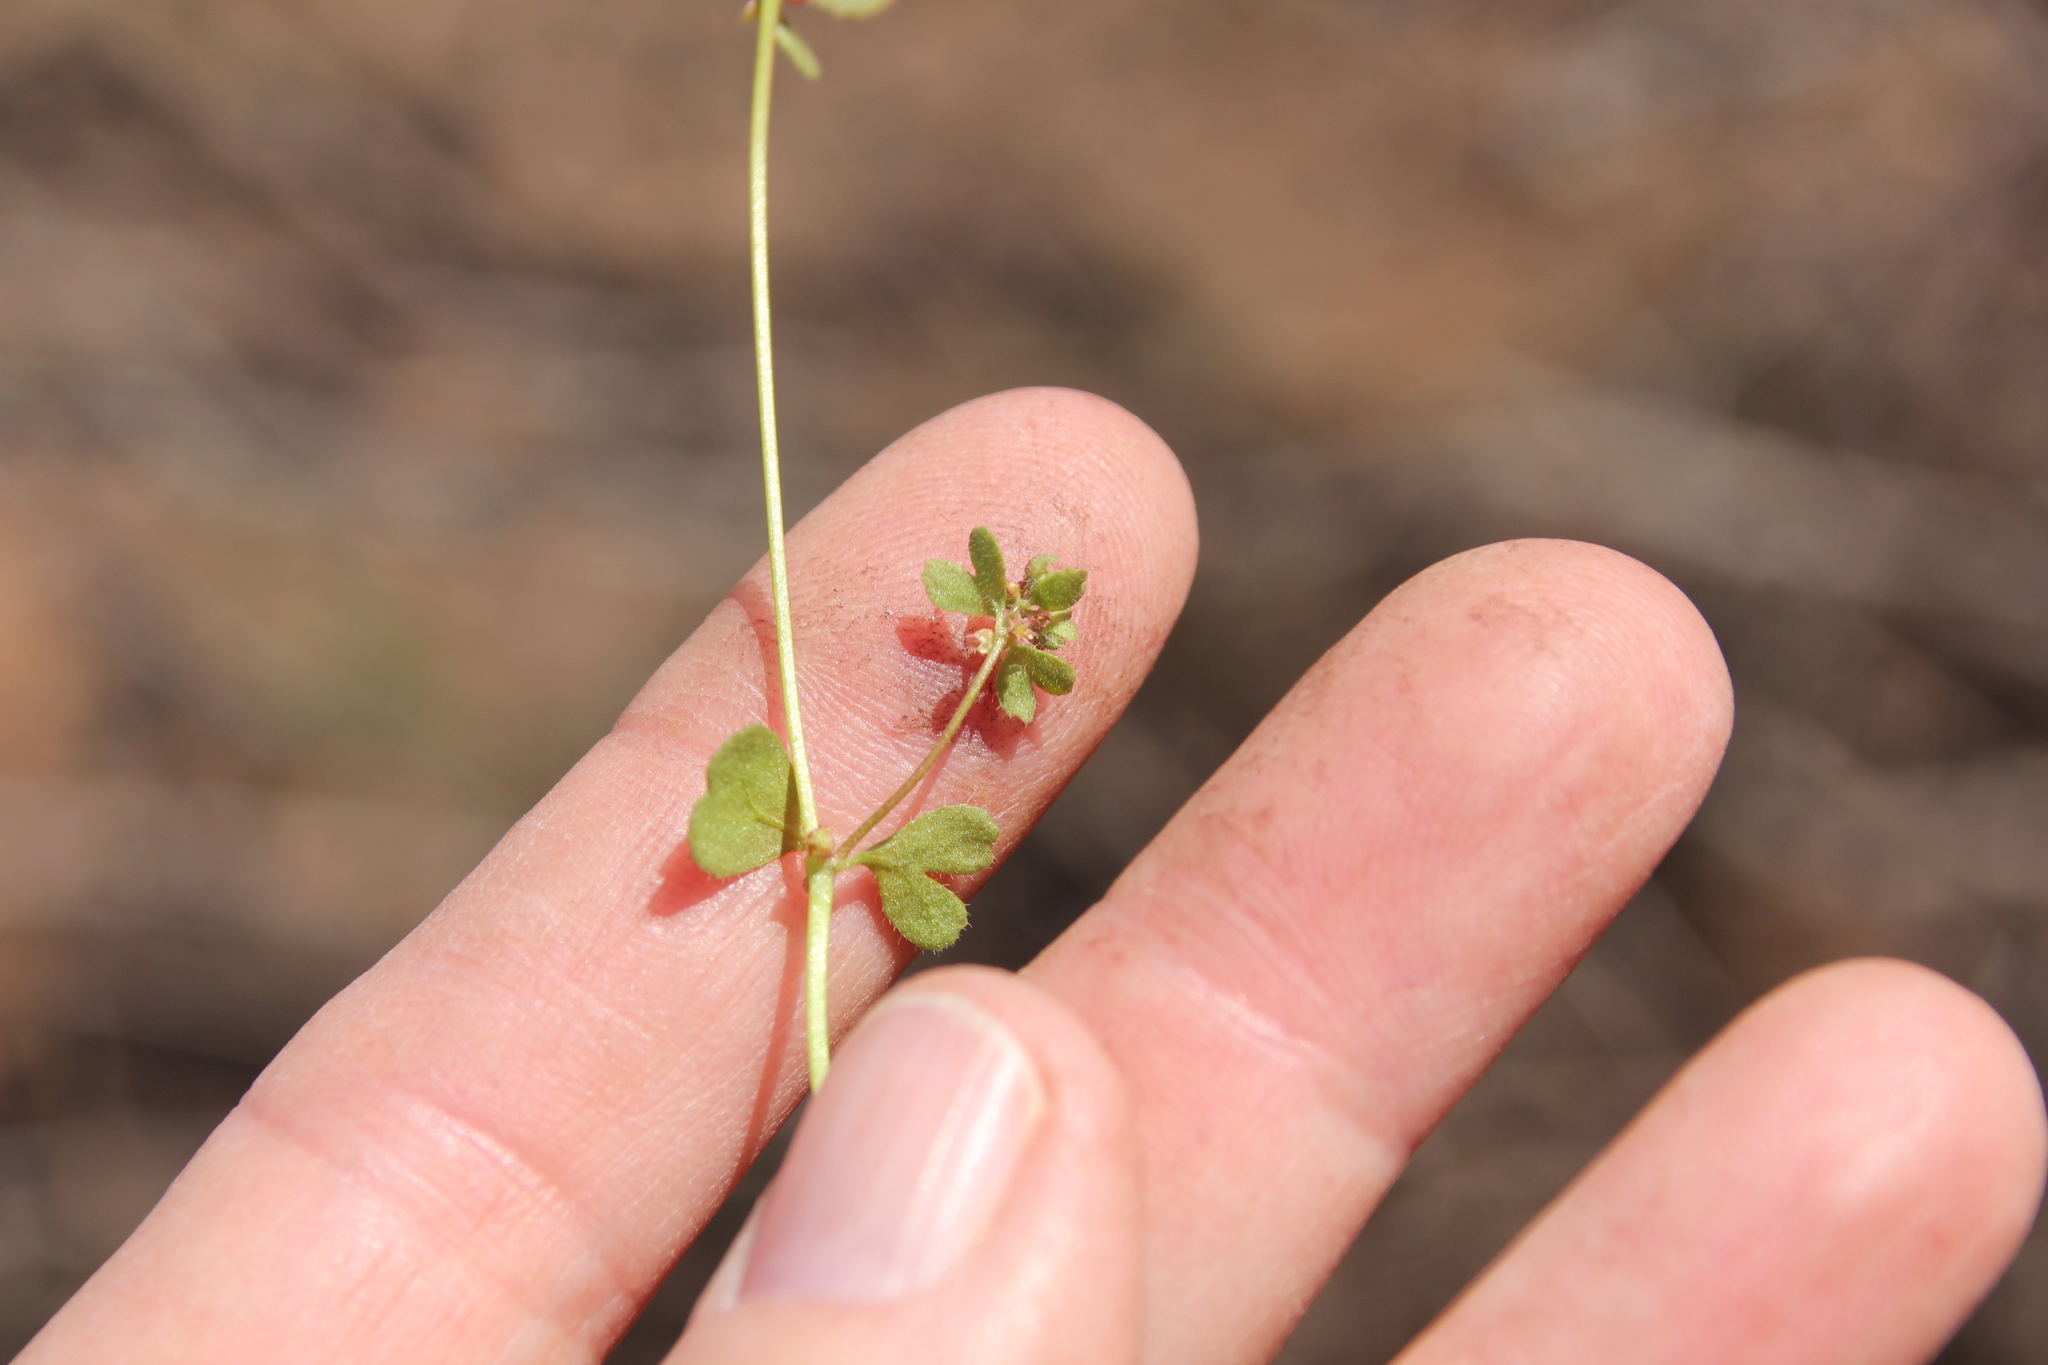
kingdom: Plantae
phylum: Tracheophyta
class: Magnoliopsida
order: Caryophyllales
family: Polygonaceae
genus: Pterostegia
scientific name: Pterostegia drymarioides
